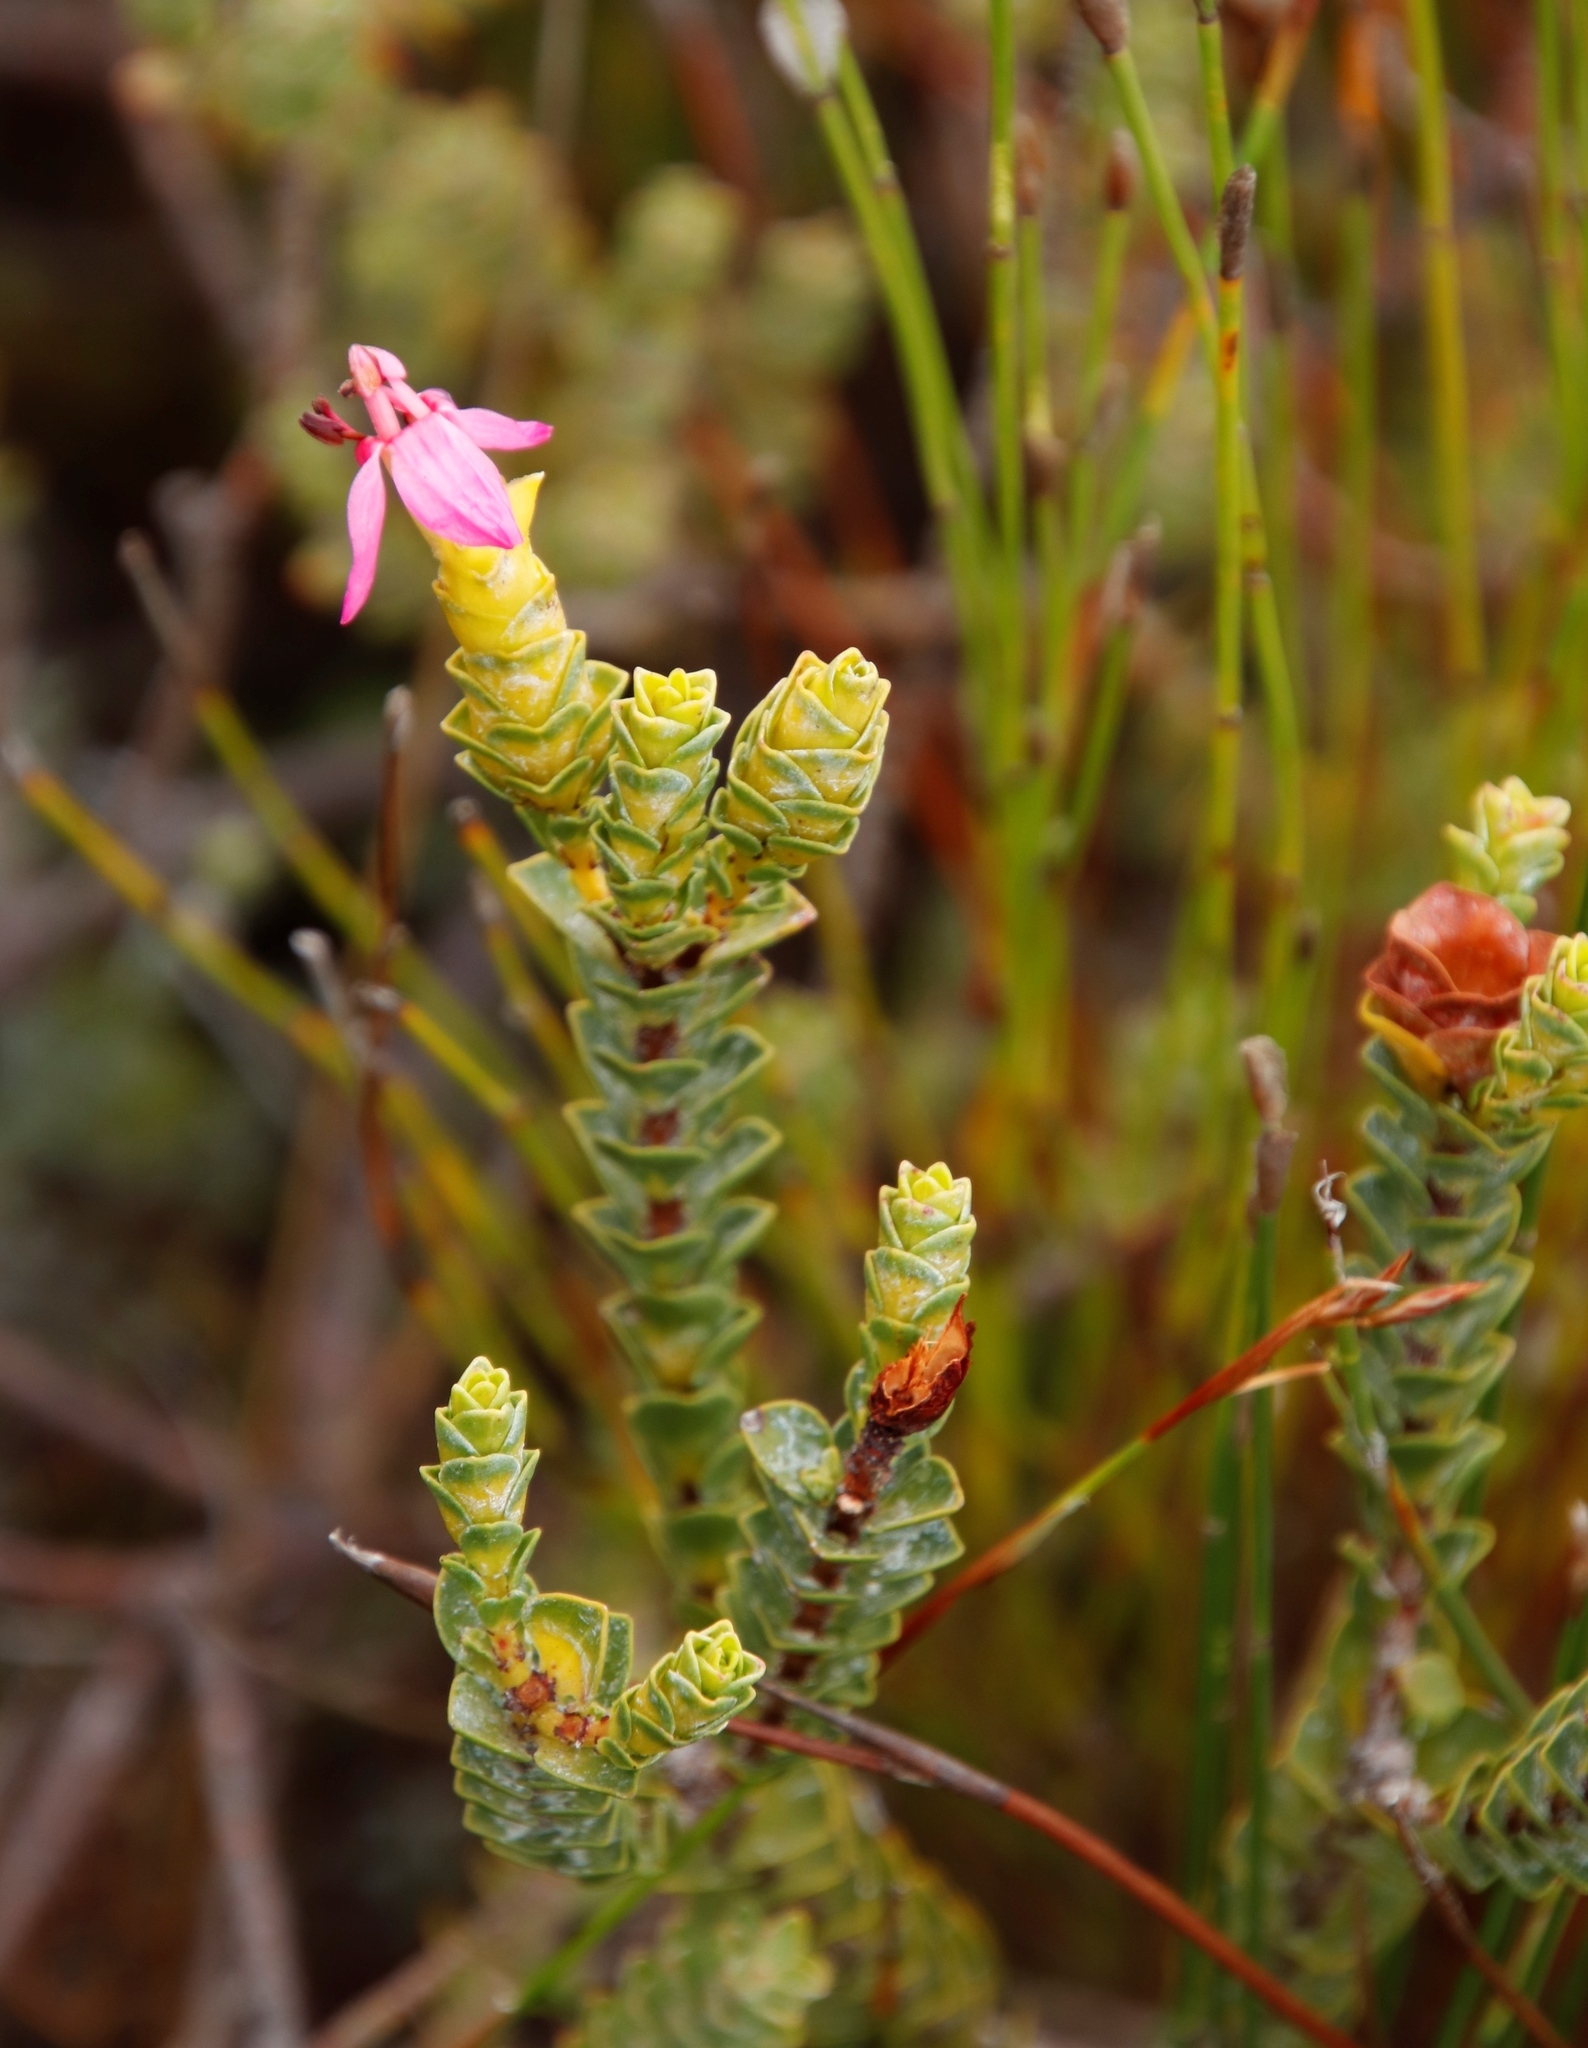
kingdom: Plantae
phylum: Tracheophyta
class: Magnoliopsida
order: Myrtales
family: Penaeaceae
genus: Saltera
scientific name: Saltera sarcocolla
